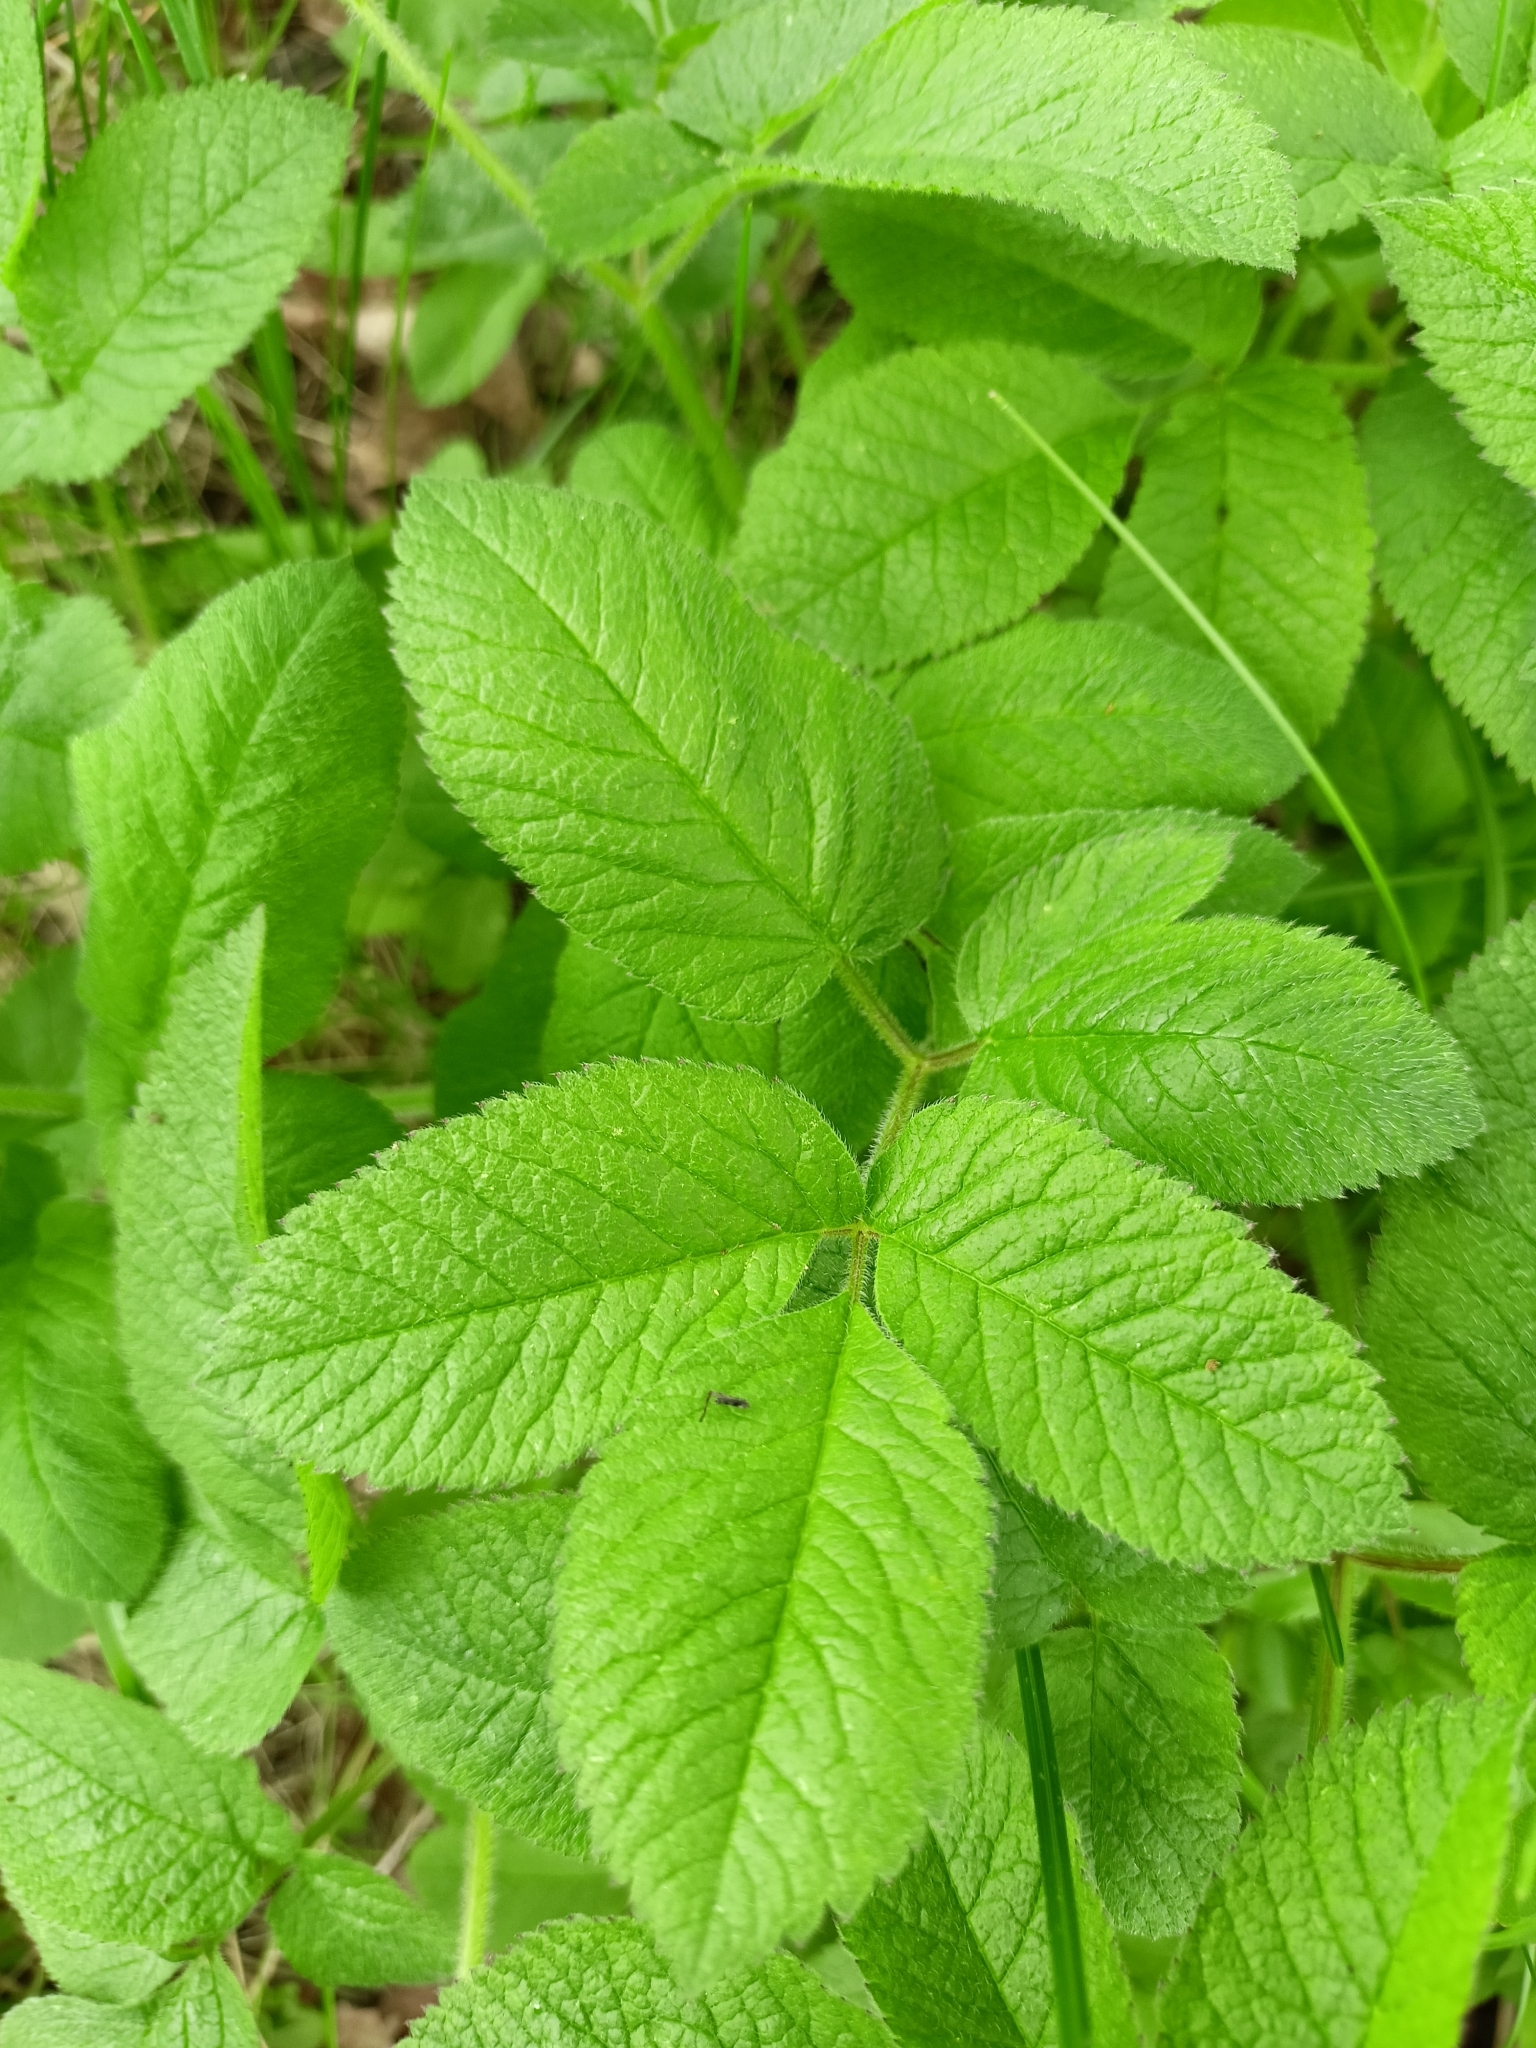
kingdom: Plantae
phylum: Tracheophyta
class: Magnoliopsida
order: Apiales
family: Apiaceae
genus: Chaerophyllum
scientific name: Chaerophyllum aromaticum
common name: Broadleaf chervil
